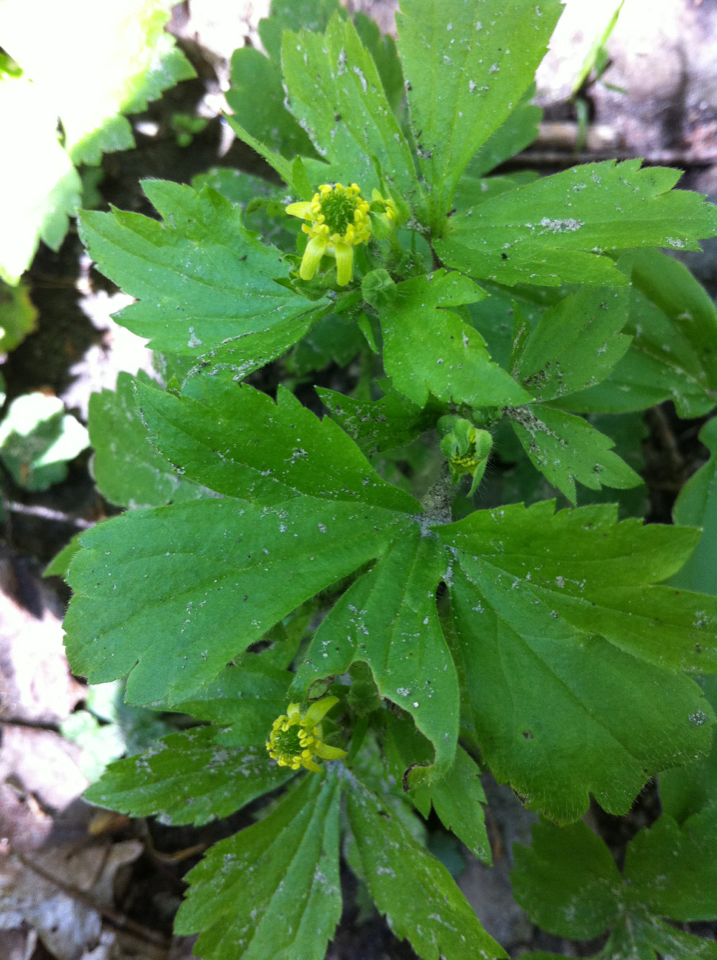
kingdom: Plantae
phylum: Tracheophyta
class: Magnoliopsida
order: Ranunculales
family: Ranunculaceae
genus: Ranunculus
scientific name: Ranunculus recurvatus
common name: Blisterwort
